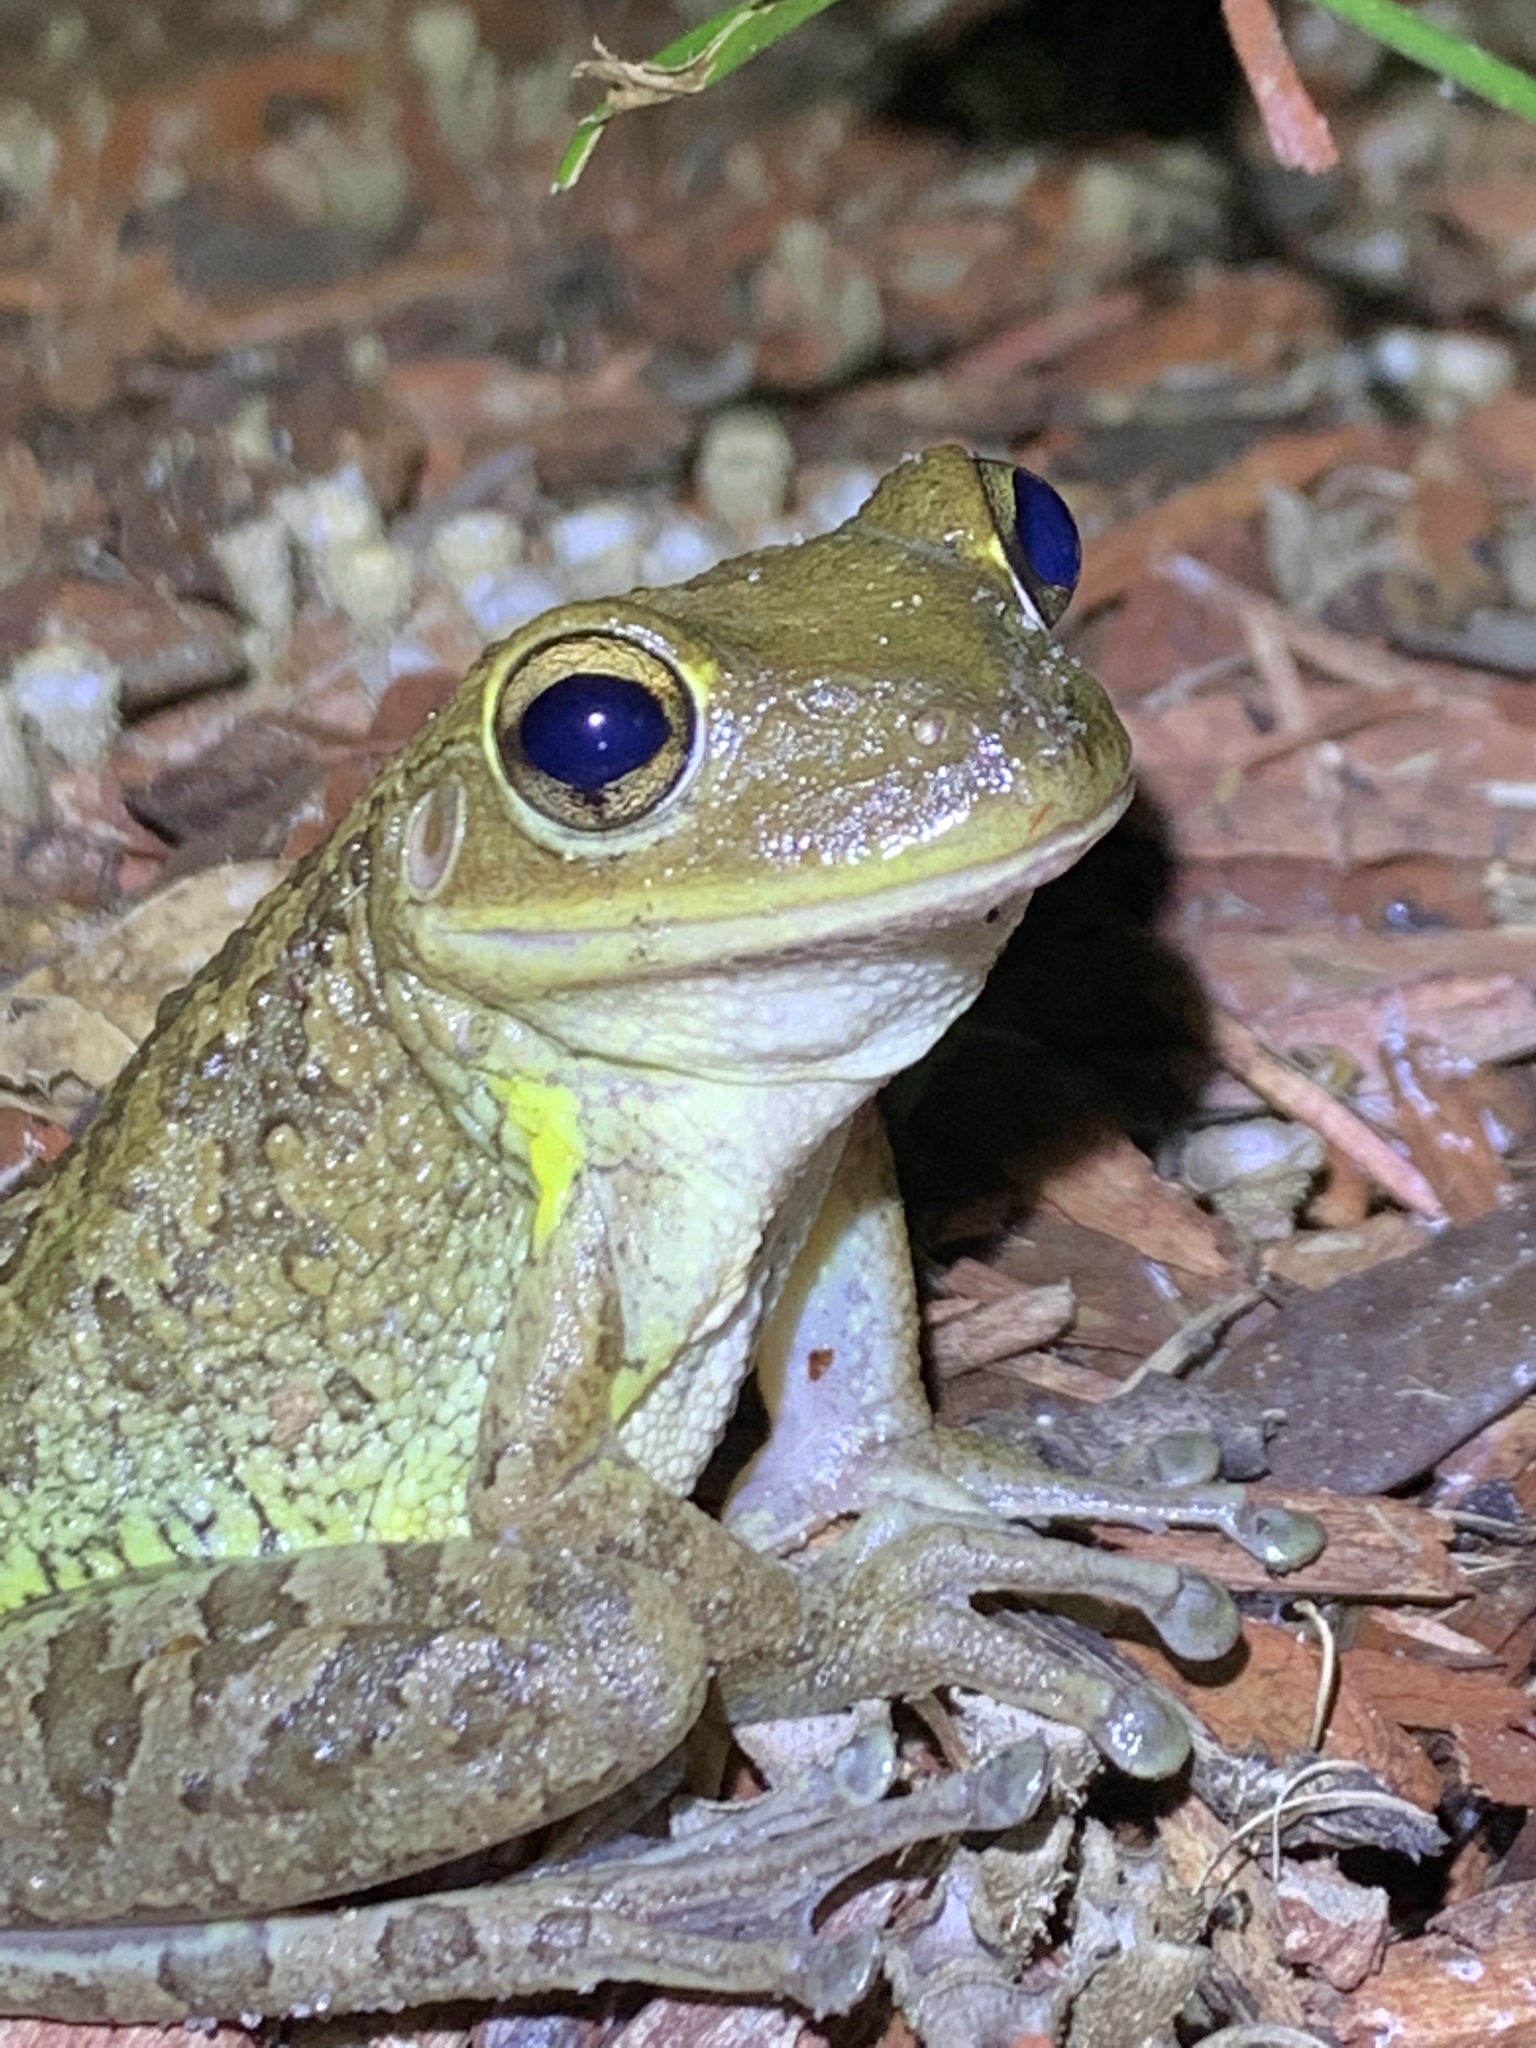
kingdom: Animalia
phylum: Chordata
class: Amphibia
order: Anura
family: Hylidae
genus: Osteopilus
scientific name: Osteopilus septentrionalis
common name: Cuban treefrog
